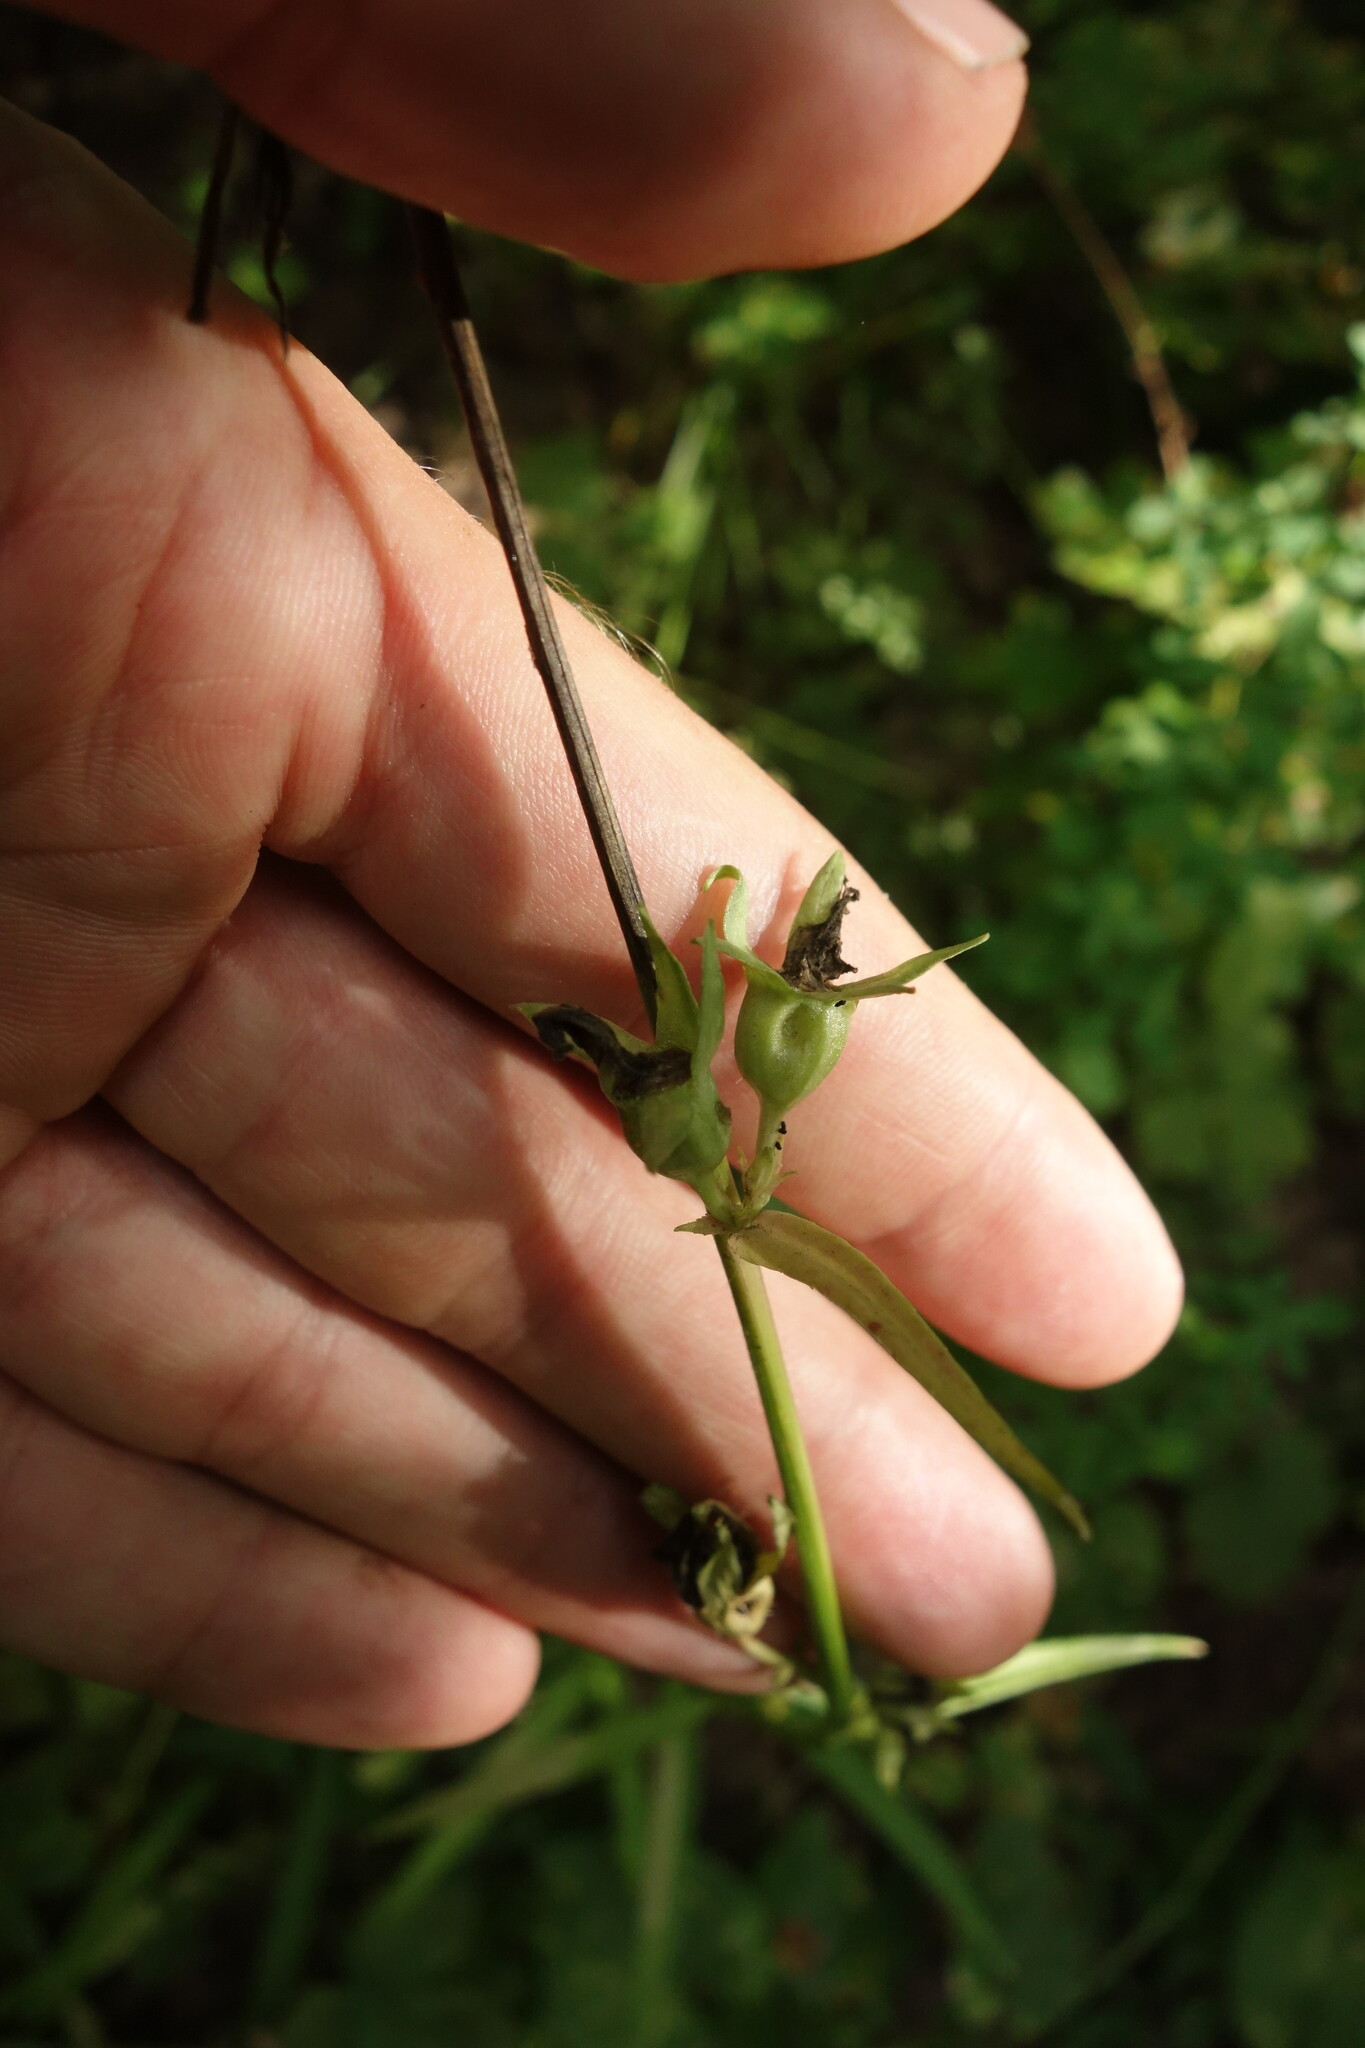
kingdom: Plantae
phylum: Tracheophyta
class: Magnoliopsida
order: Asterales
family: Campanulaceae
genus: Campanula
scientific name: Campanula persicifolia
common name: Peach-leaved bellflower
